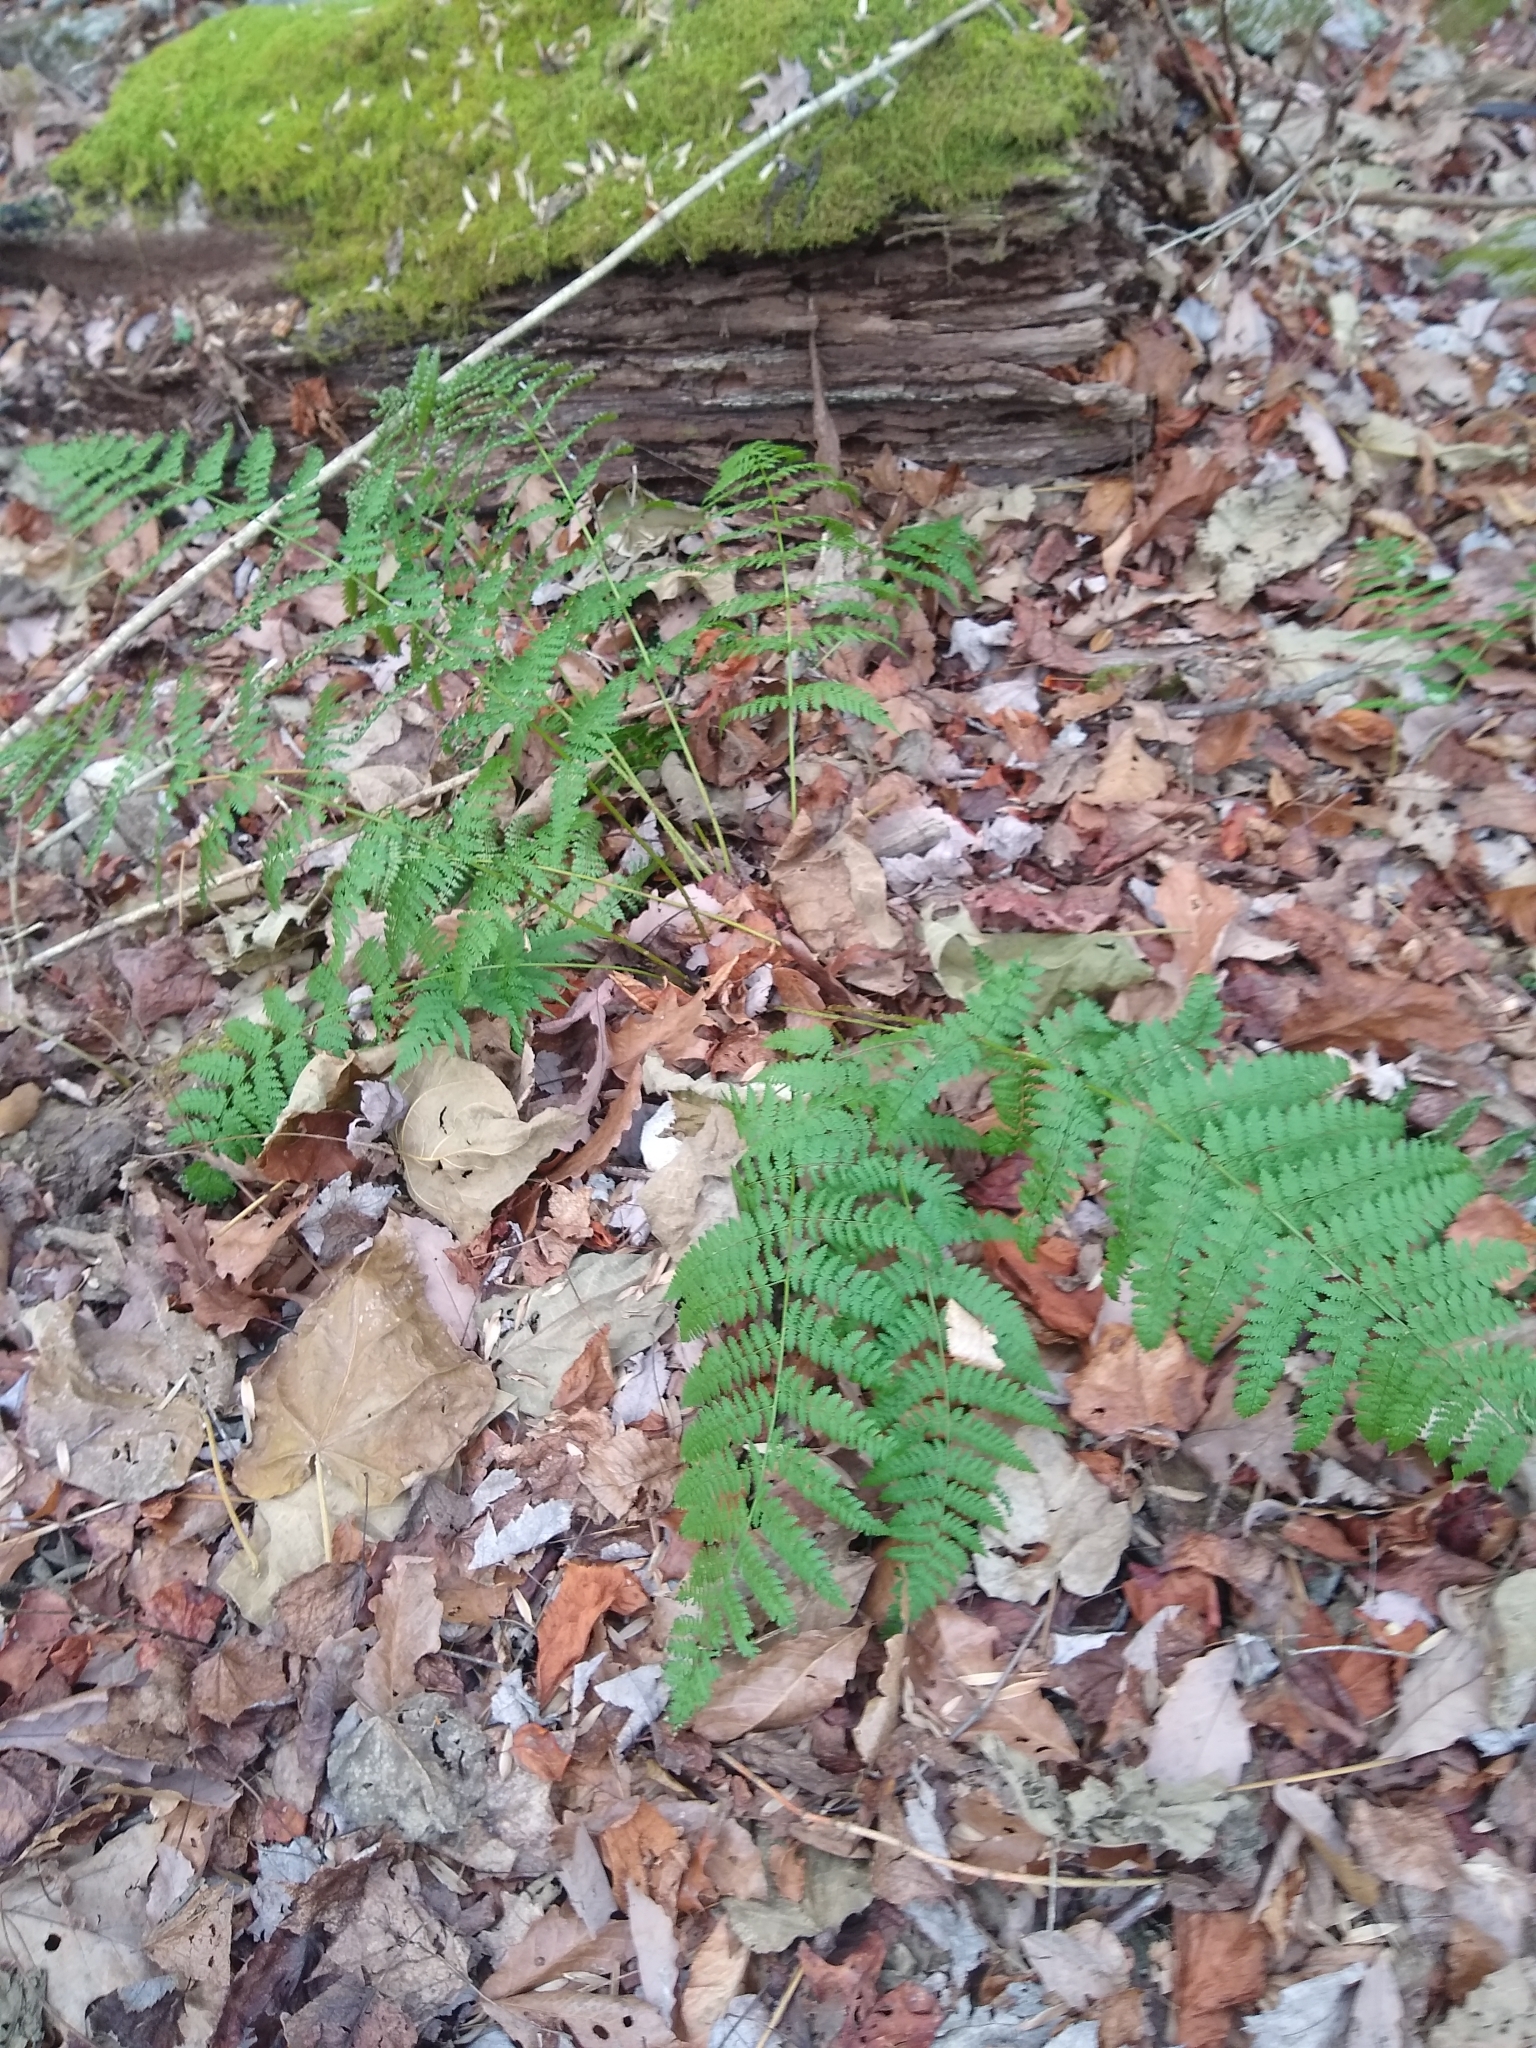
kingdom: Plantae
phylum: Tracheophyta
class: Polypodiopsida
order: Polypodiales
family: Dryopteridaceae
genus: Dryopteris
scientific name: Dryopteris intermedia
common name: Evergreen wood fern
